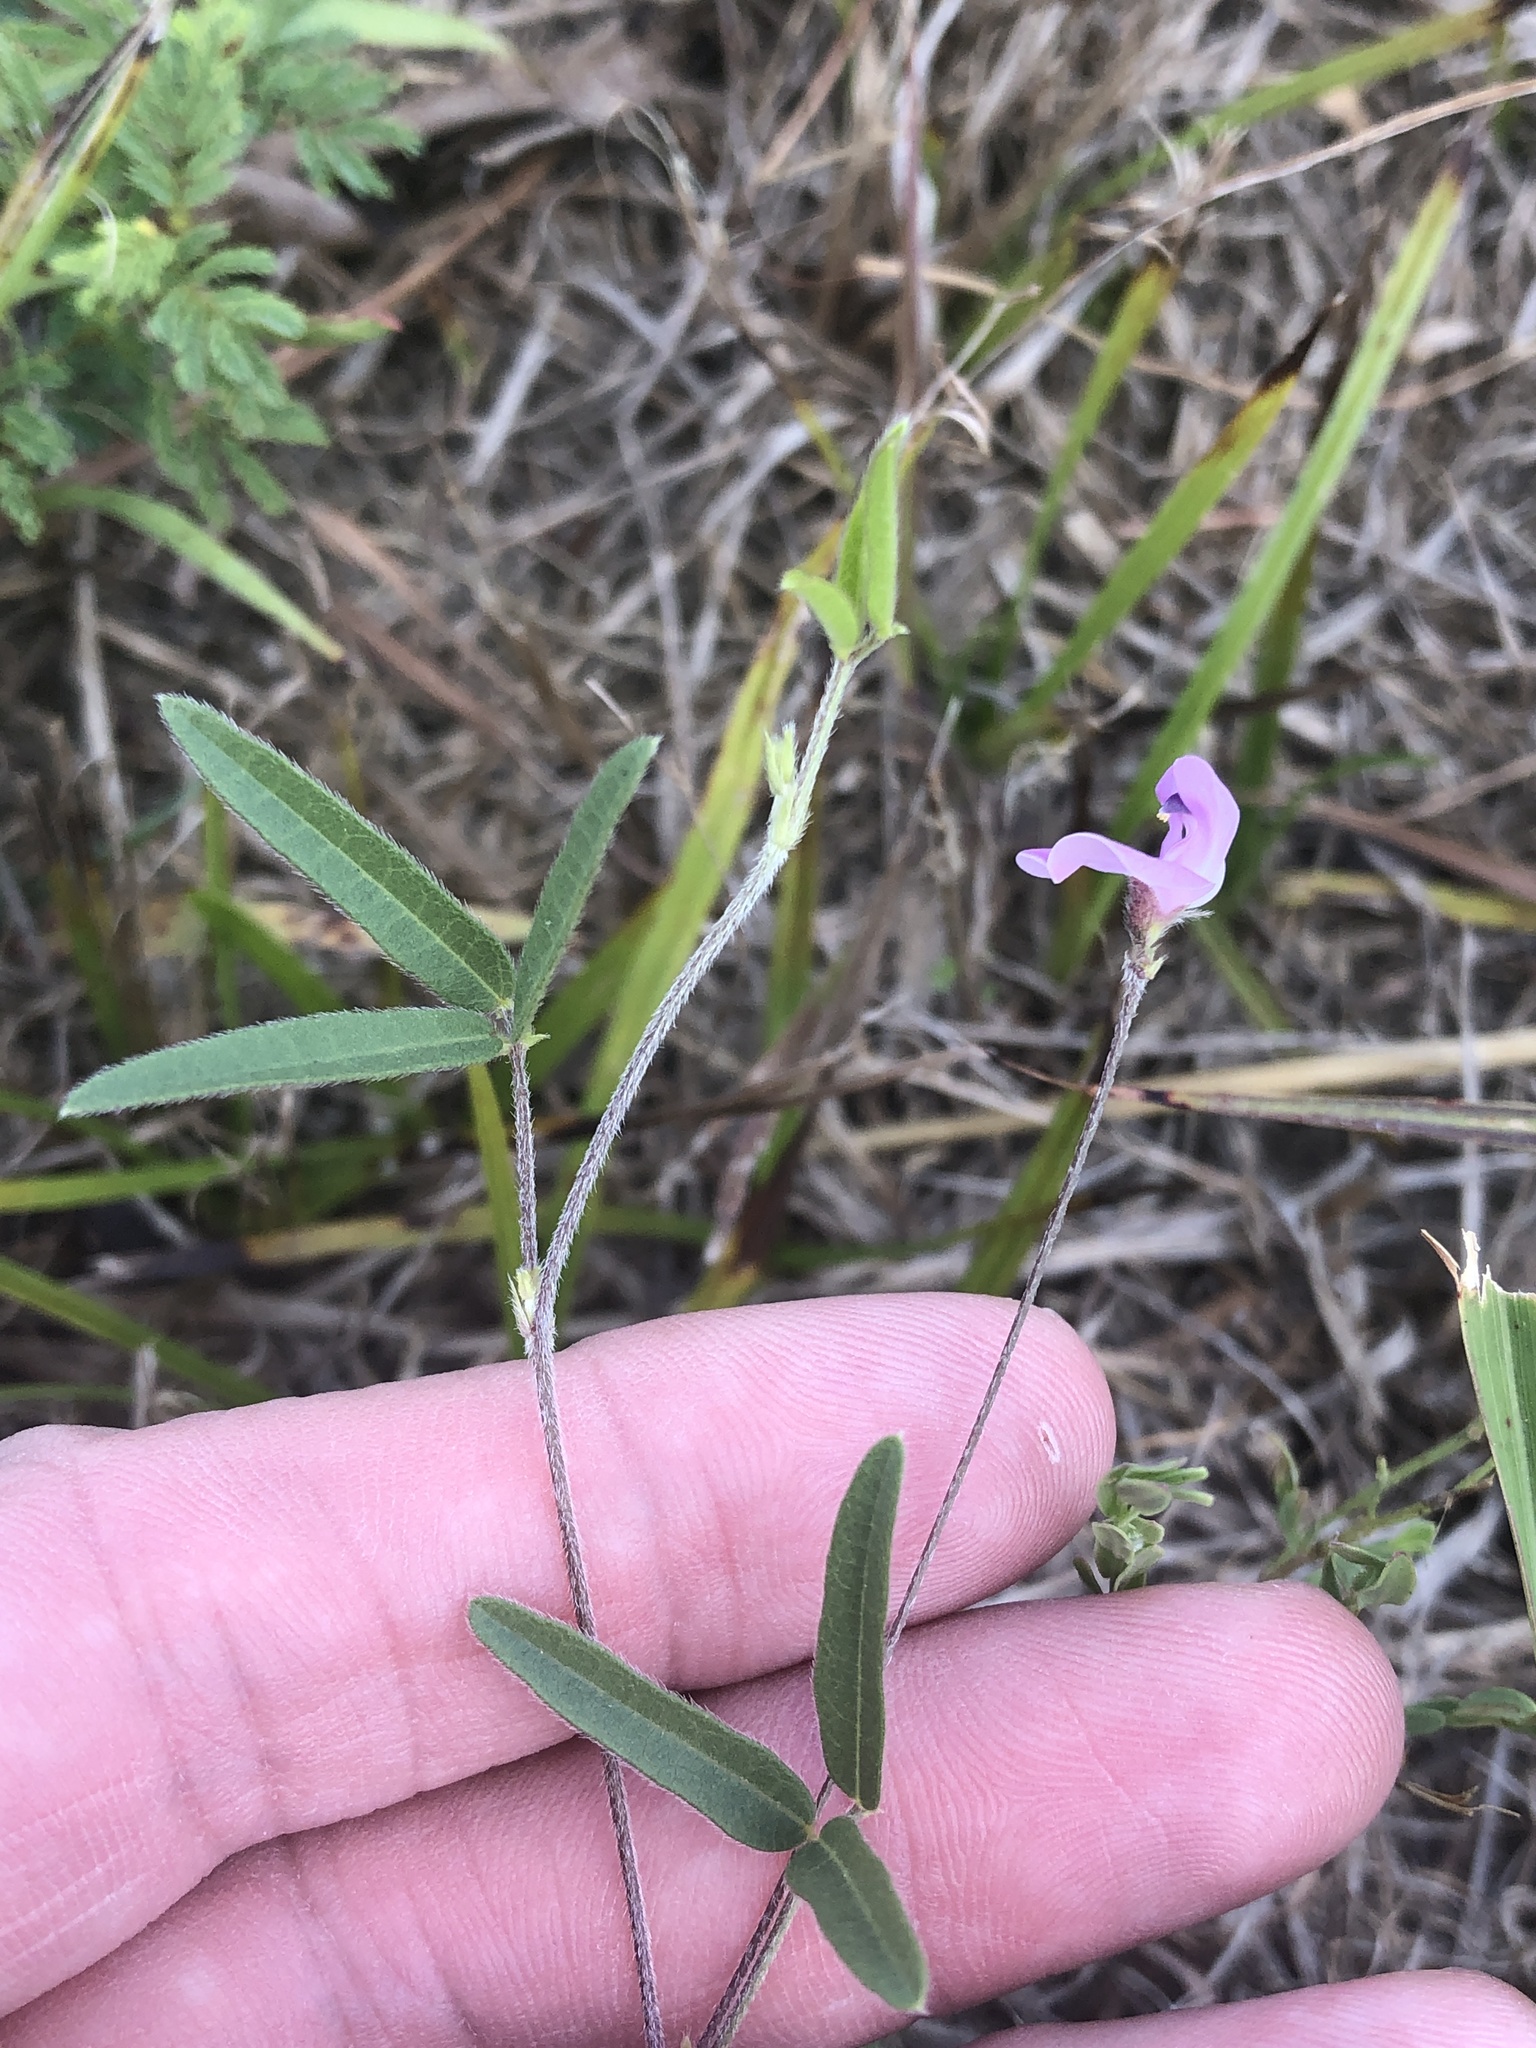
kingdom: Plantae
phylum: Tracheophyta
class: Magnoliopsida
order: Fabales
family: Fabaceae
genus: Strophostyles
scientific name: Strophostyles leiosperma
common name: Smooth-seed wild bean
